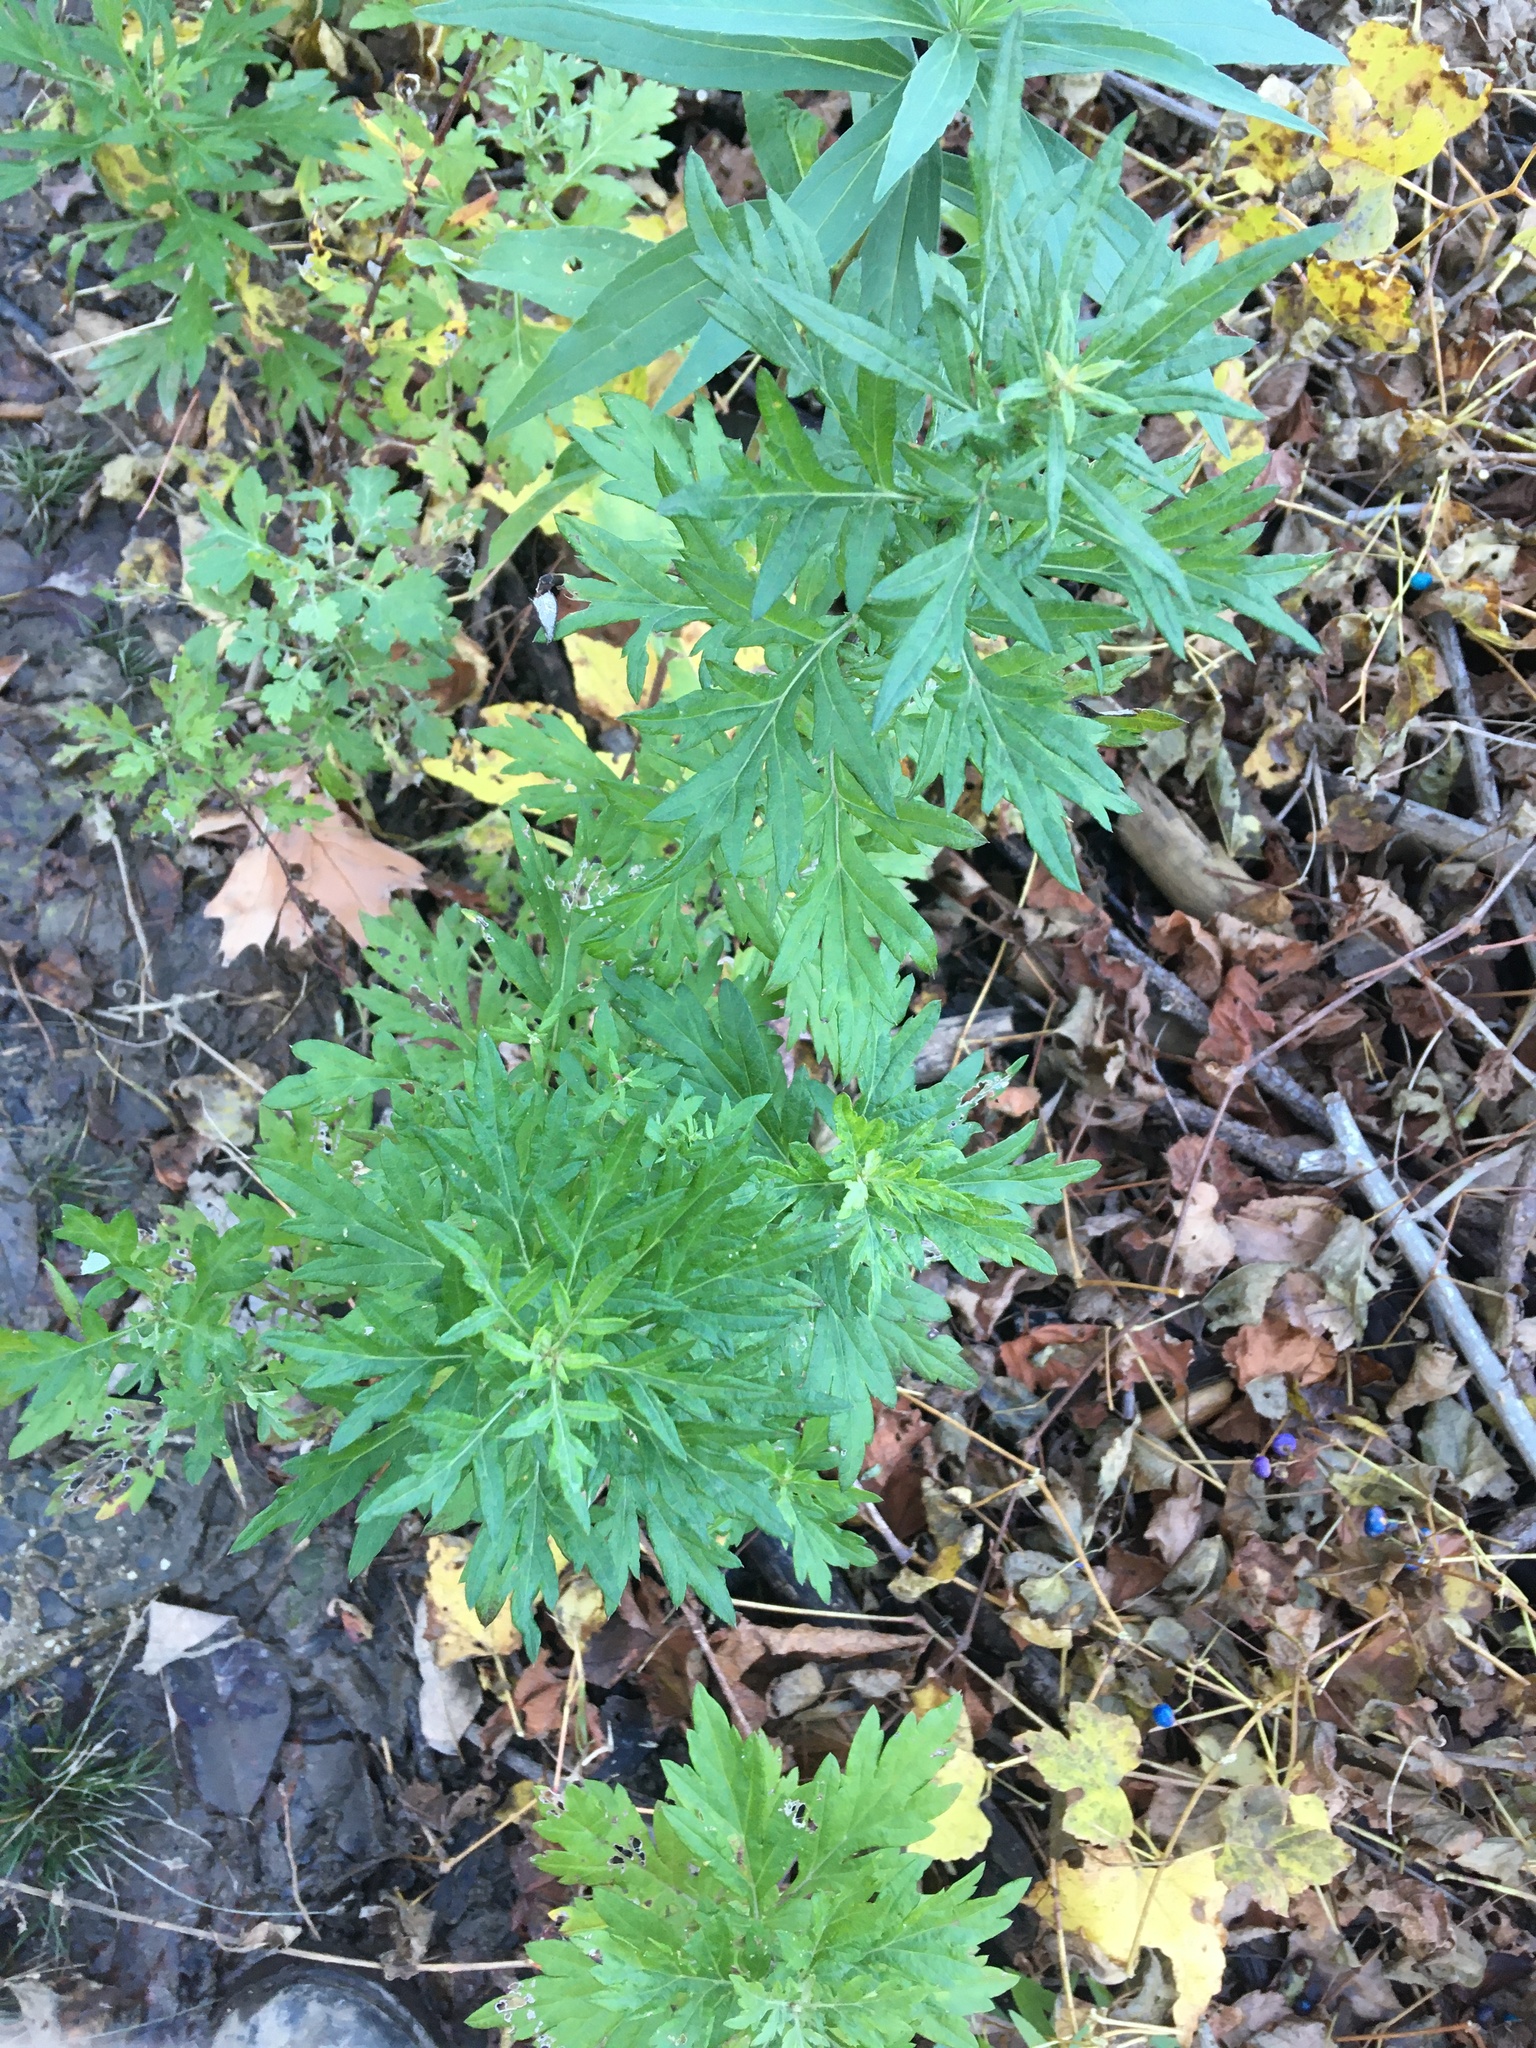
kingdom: Plantae
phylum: Tracheophyta
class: Magnoliopsida
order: Asterales
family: Asteraceae
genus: Artemisia
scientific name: Artemisia vulgaris
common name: Mugwort
